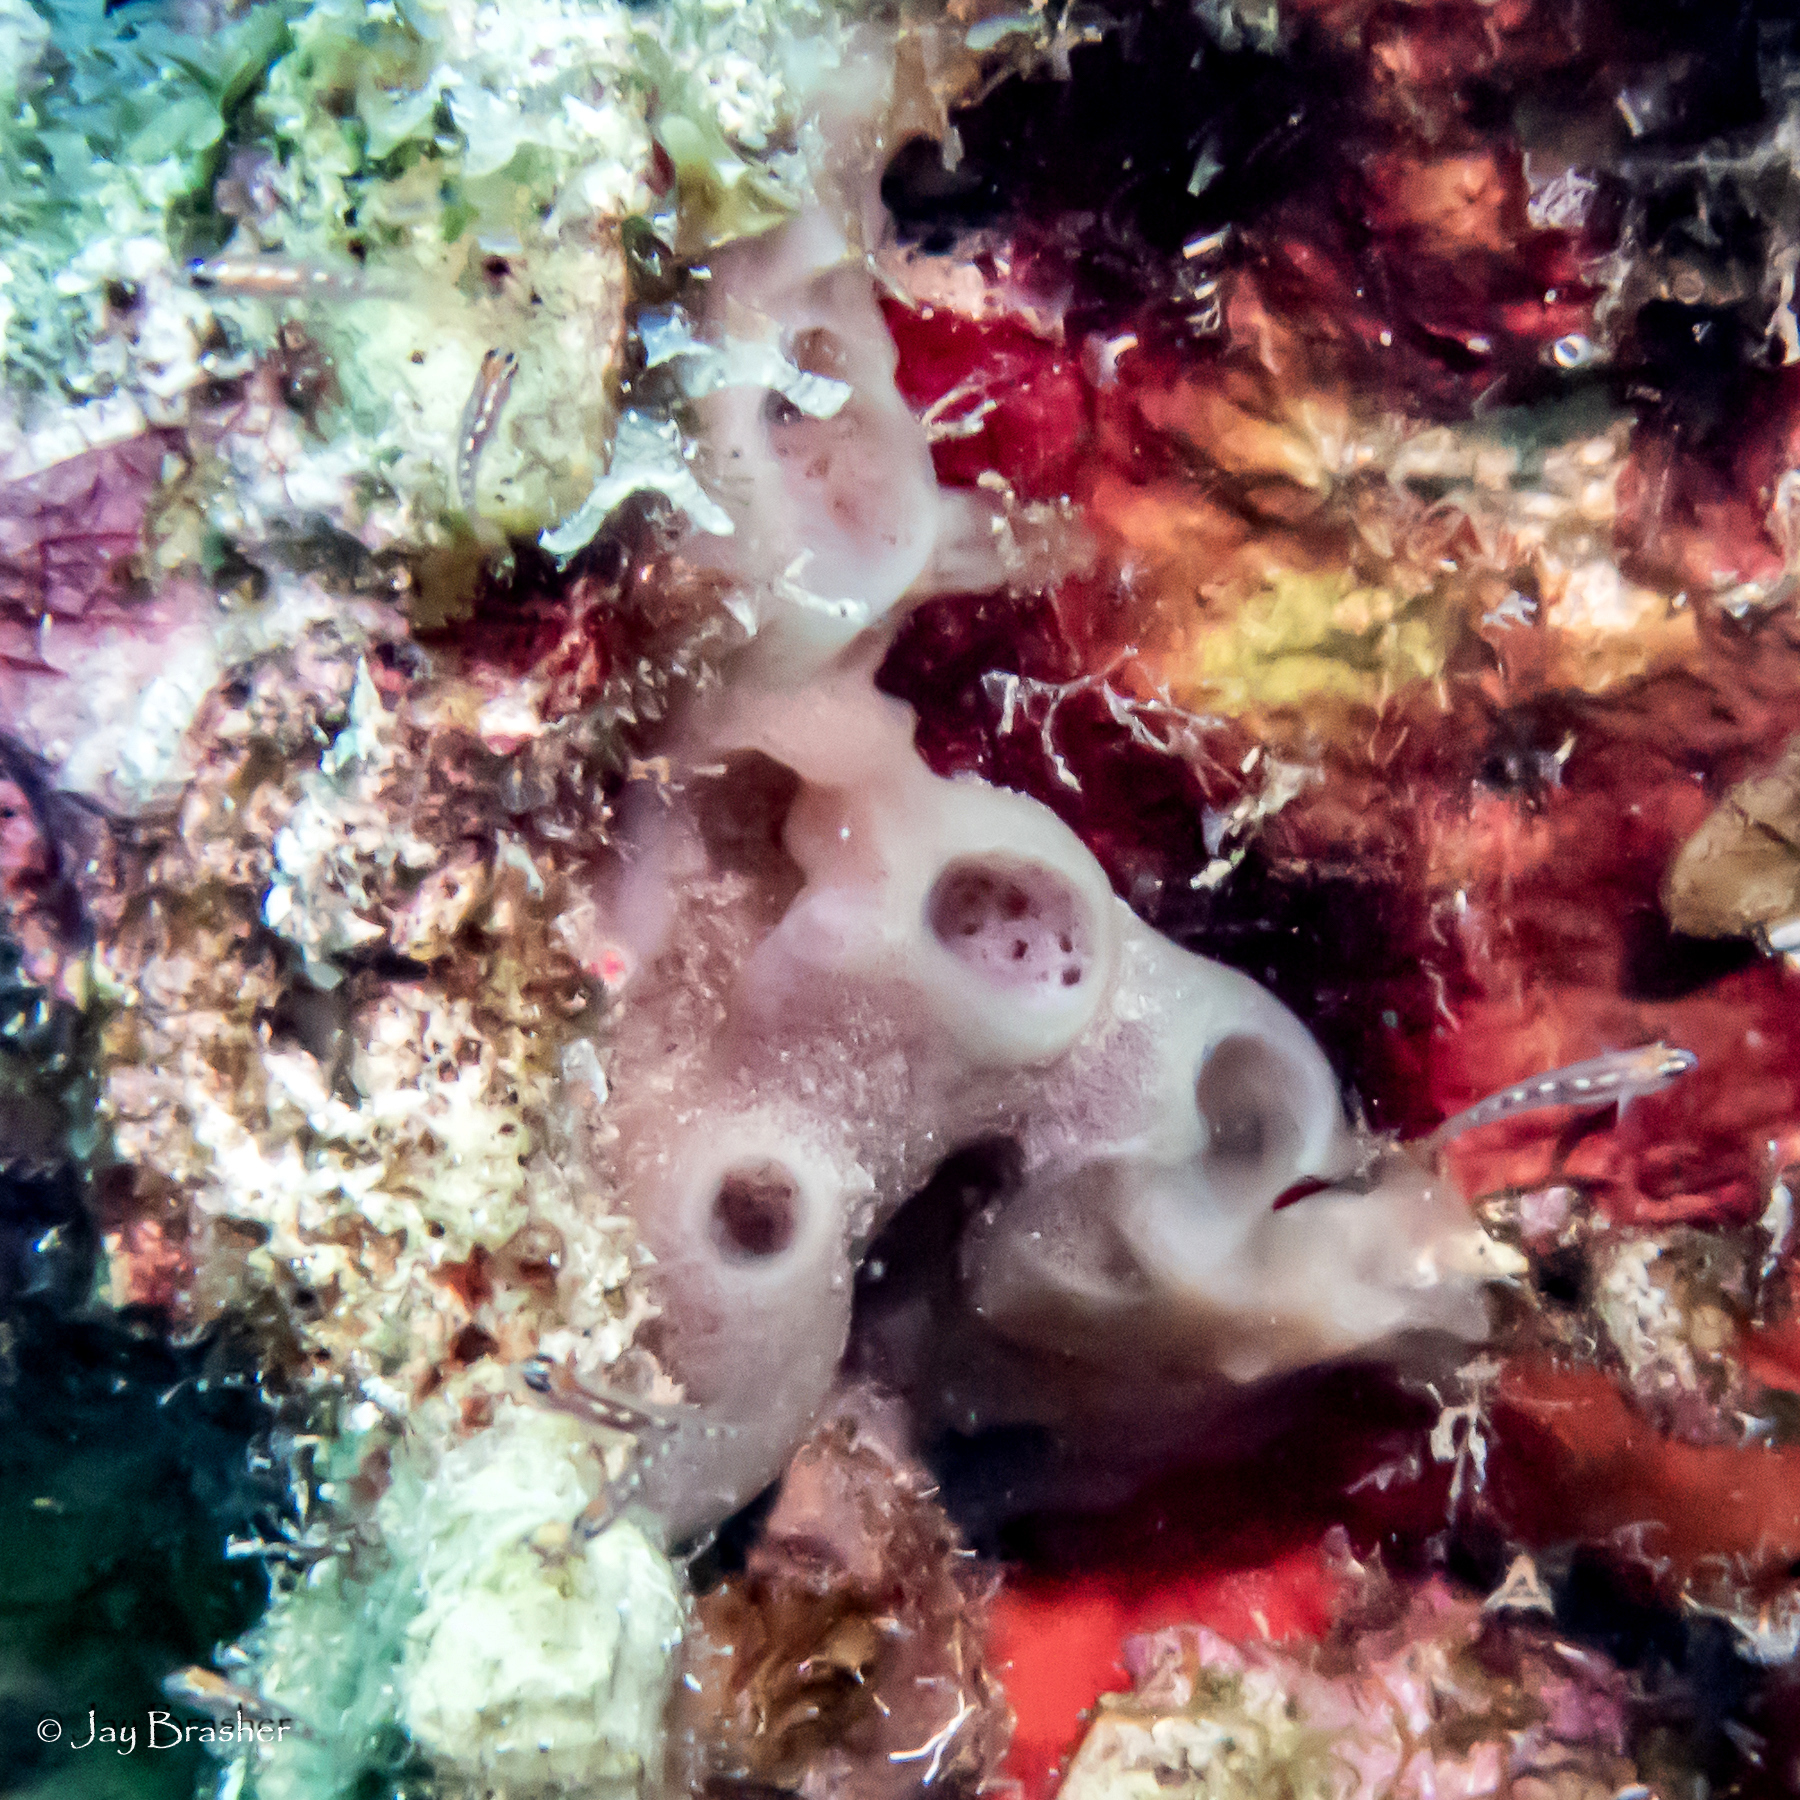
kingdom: Animalia
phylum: Porifera
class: Demospongiae
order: Haplosclerida
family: Callyspongiidae
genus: Callyspongia
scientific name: Callyspongia fallax
